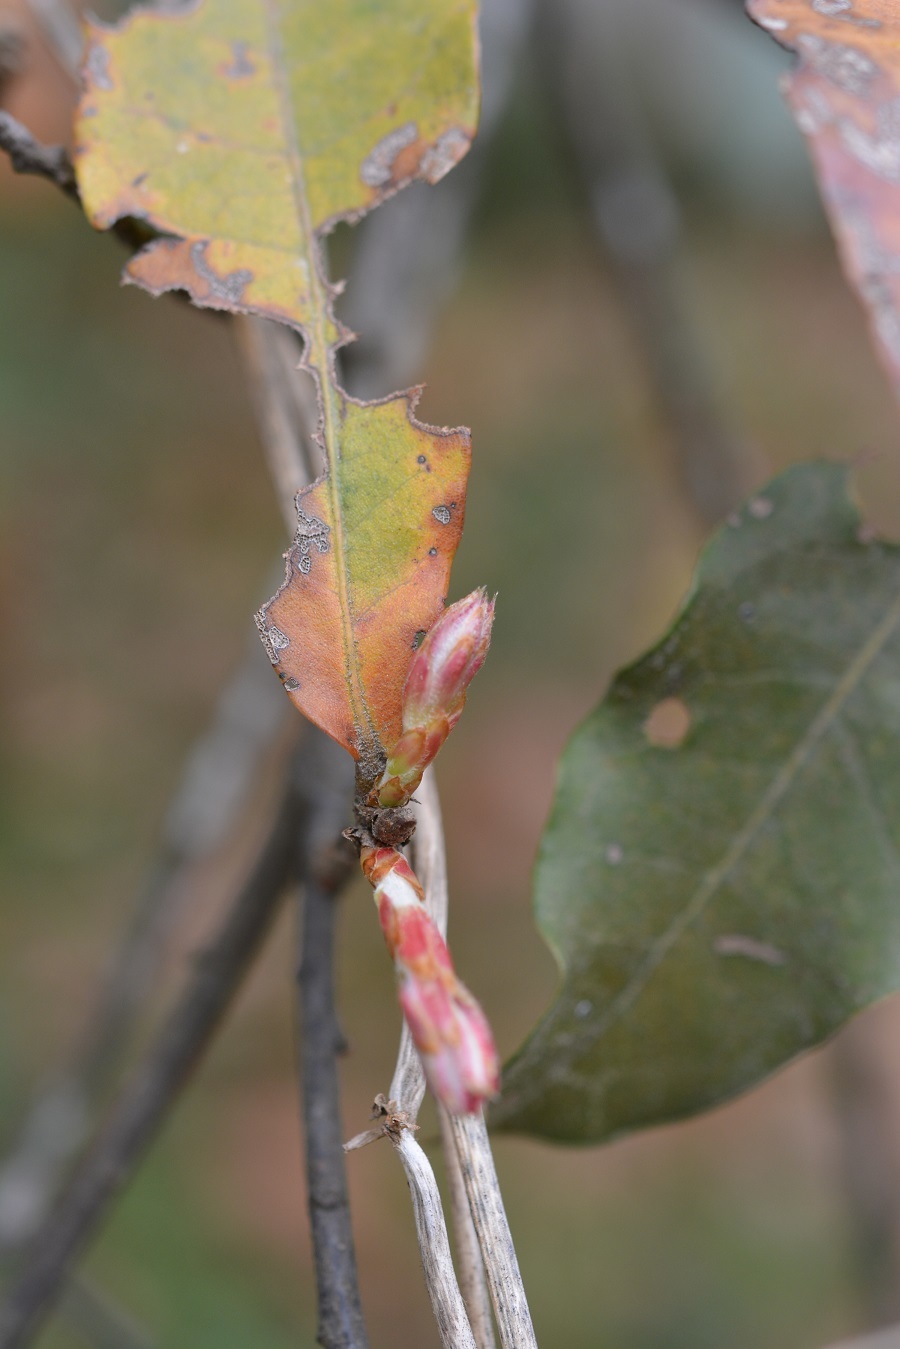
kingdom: Plantae
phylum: Tracheophyta
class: Magnoliopsida
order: Fagales
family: Fagaceae
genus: Quercus
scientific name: Quercus rubramenta
